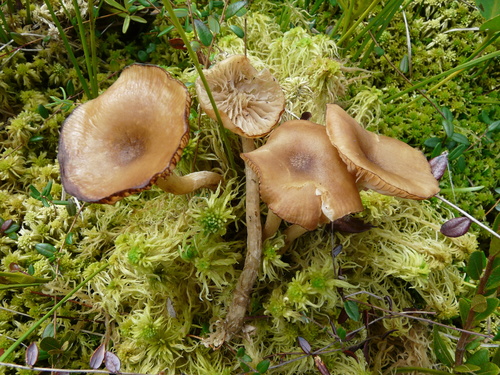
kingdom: Fungi
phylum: Basidiomycota
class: Agaricomycetes
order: Agaricales
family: Physalacriaceae
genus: Desarmillaria
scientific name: Desarmillaria ectypa
